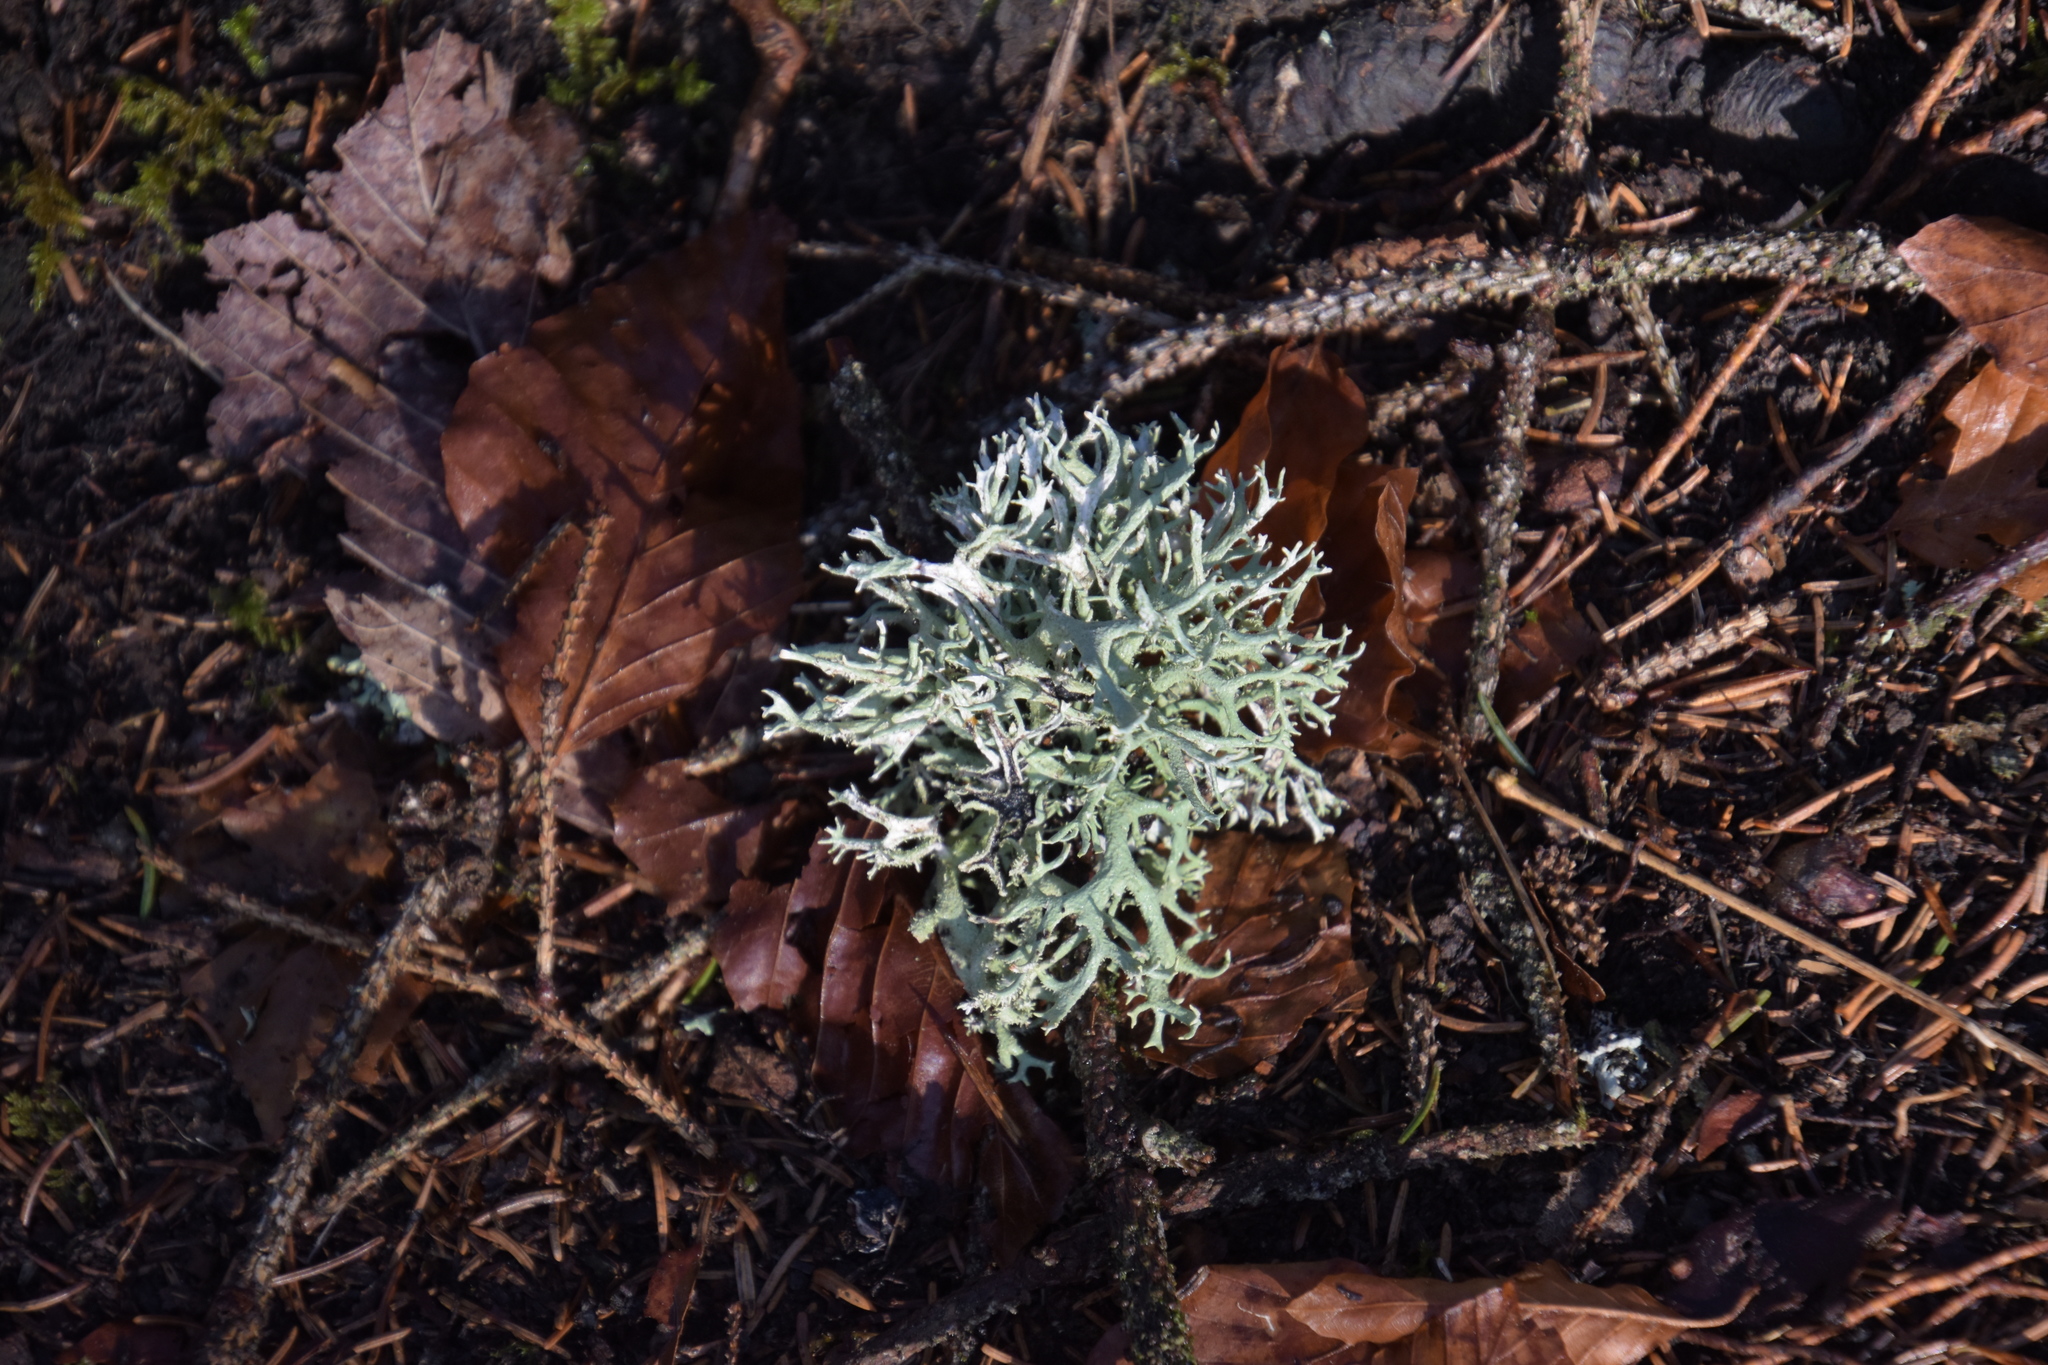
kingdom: Fungi
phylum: Ascomycota
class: Lecanoromycetes
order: Lecanorales
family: Parmeliaceae
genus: Pseudevernia
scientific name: Pseudevernia furfuracea
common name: Tree moss
